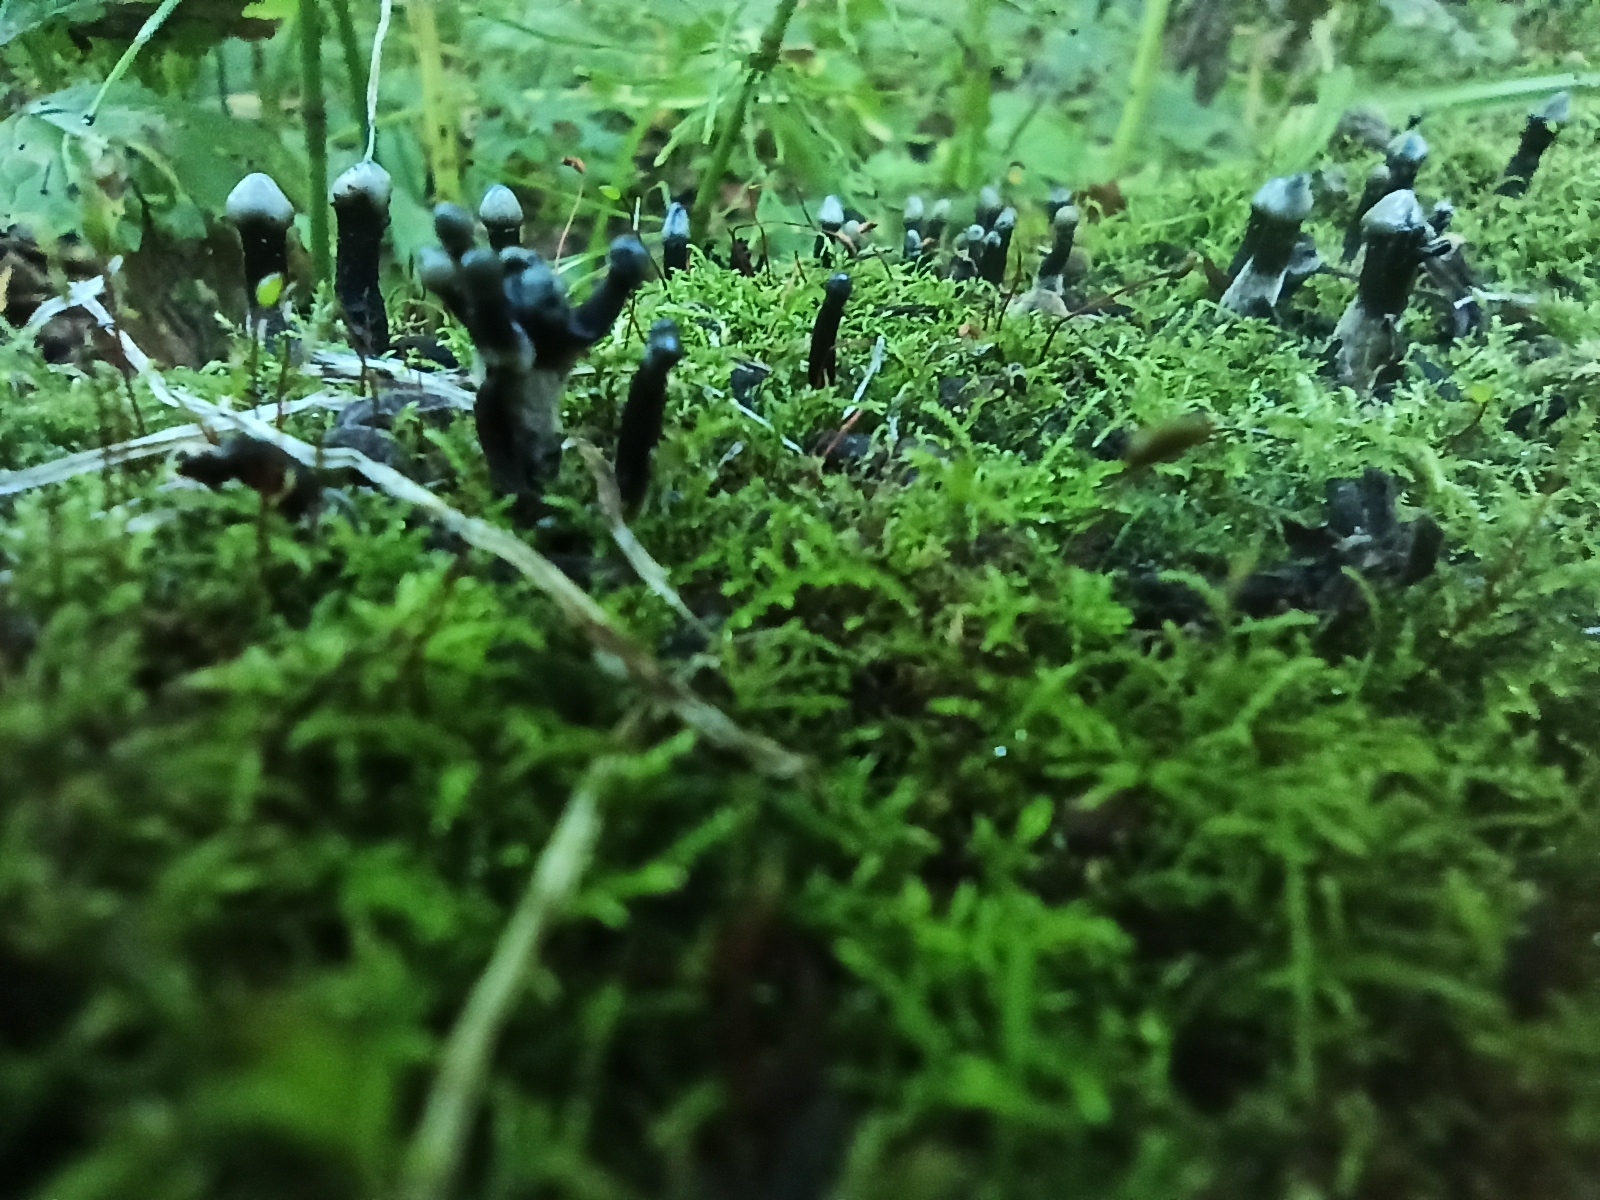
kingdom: Fungi
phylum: Ascomycota
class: Leotiomycetes
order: Helotiales
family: Bulgariaceae
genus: Holwaya
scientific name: Holwaya mucida
